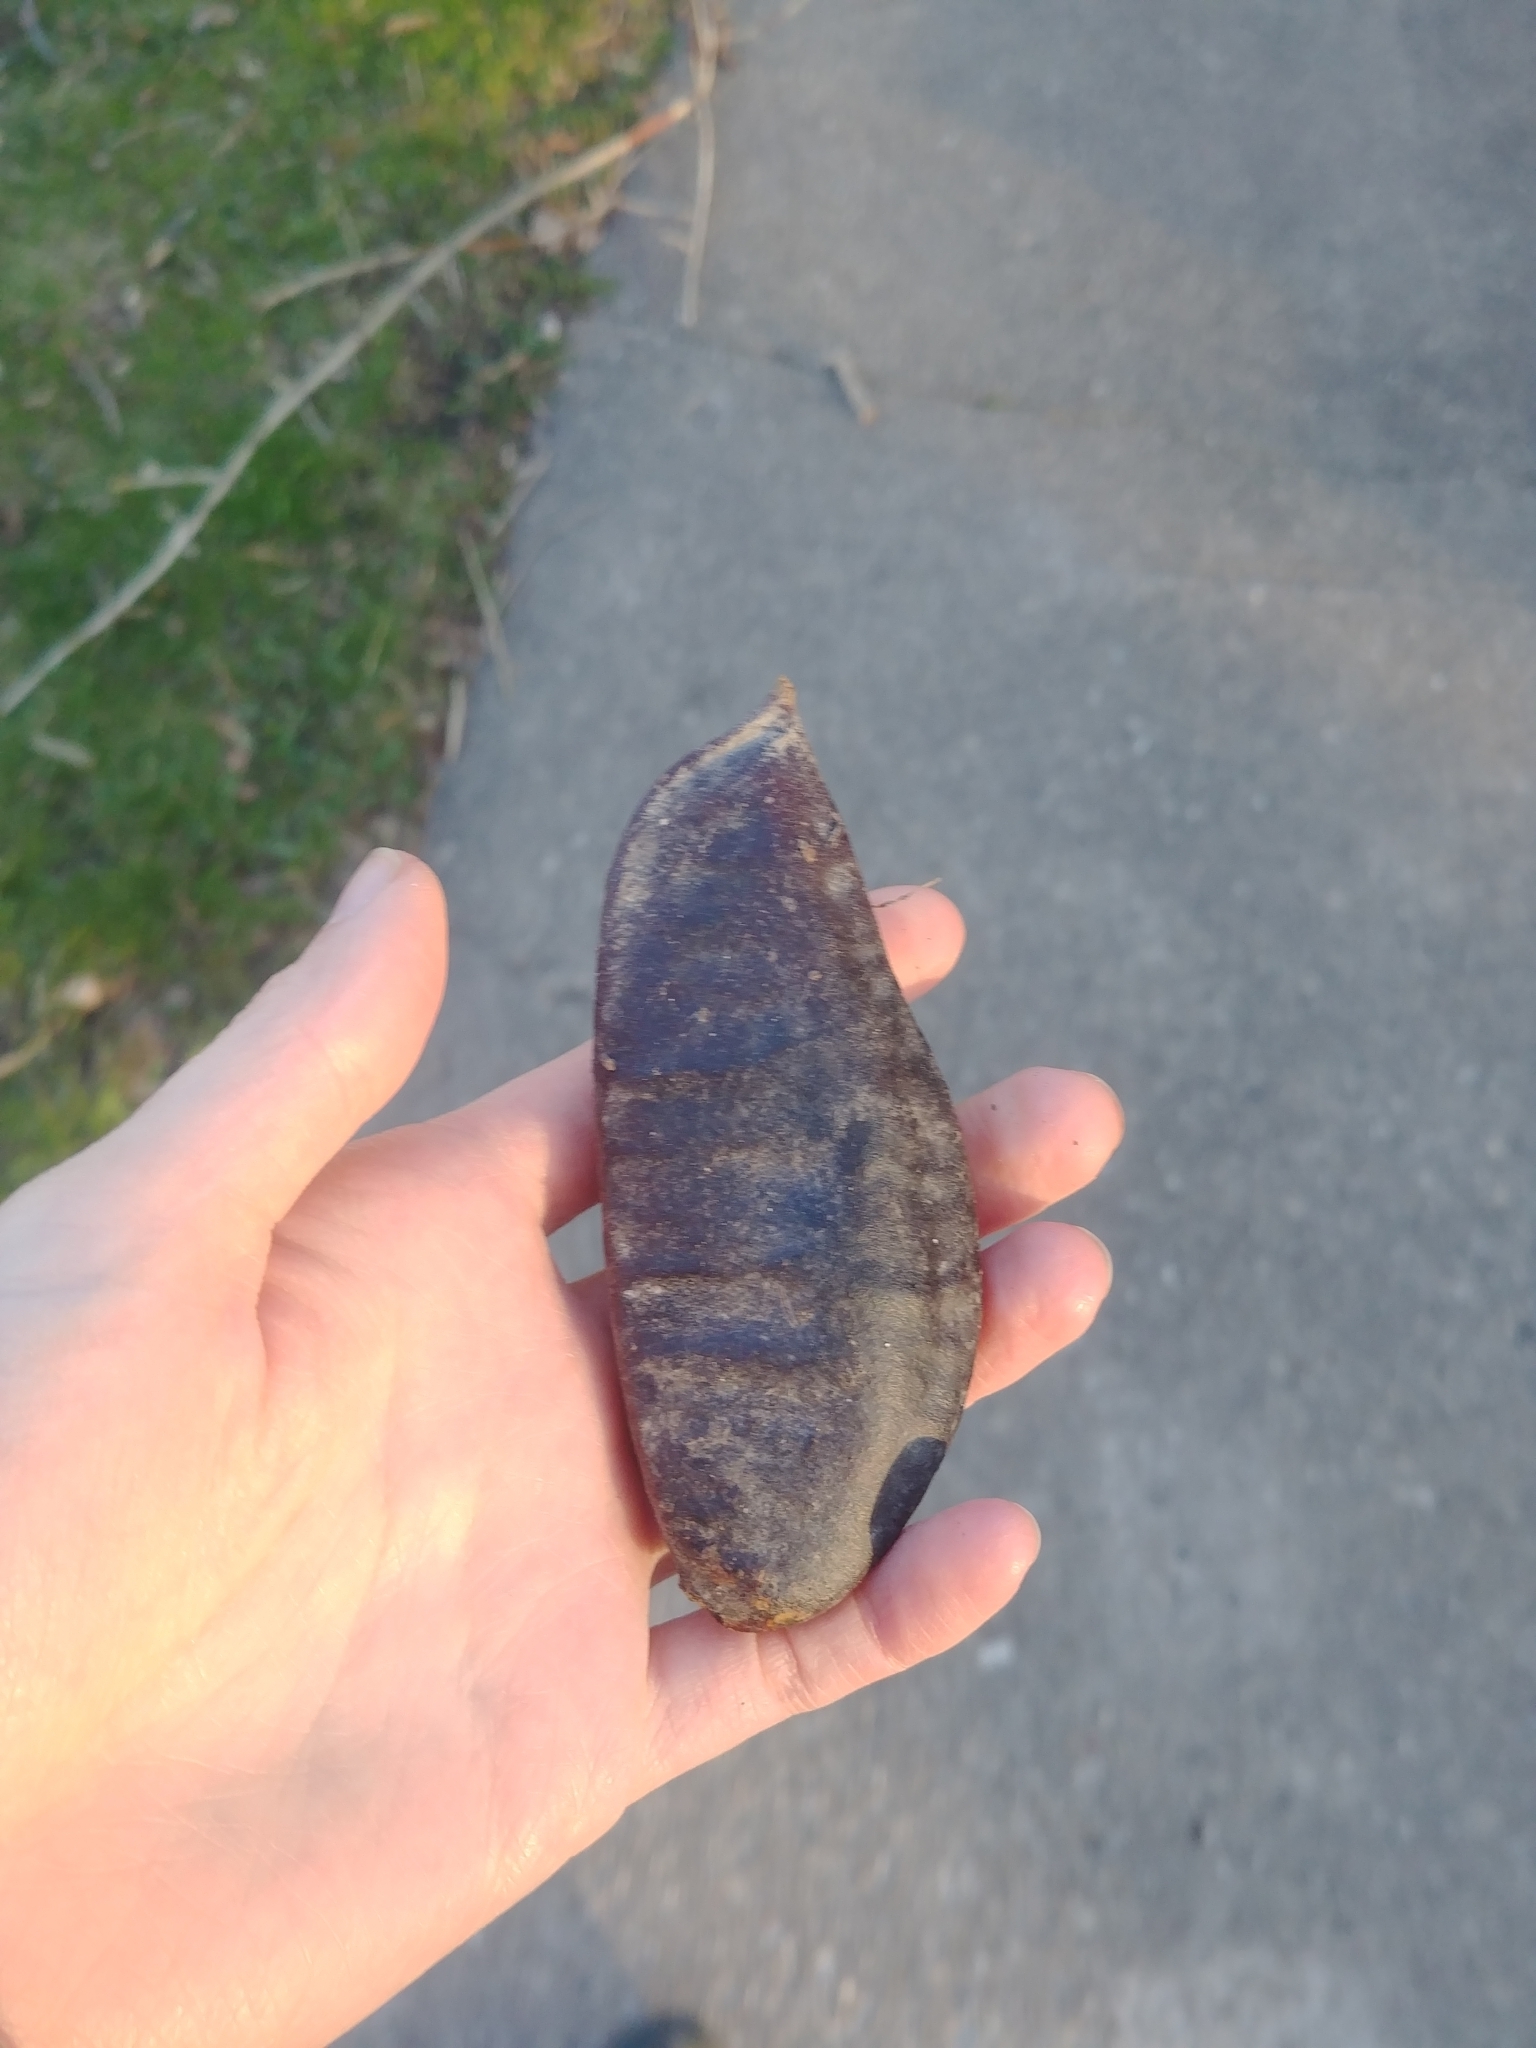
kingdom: Plantae
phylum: Tracheophyta
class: Magnoliopsida
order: Fabales
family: Fabaceae
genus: Gymnocladus
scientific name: Gymnocladus dioicus
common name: Kentucky coffee-tree
